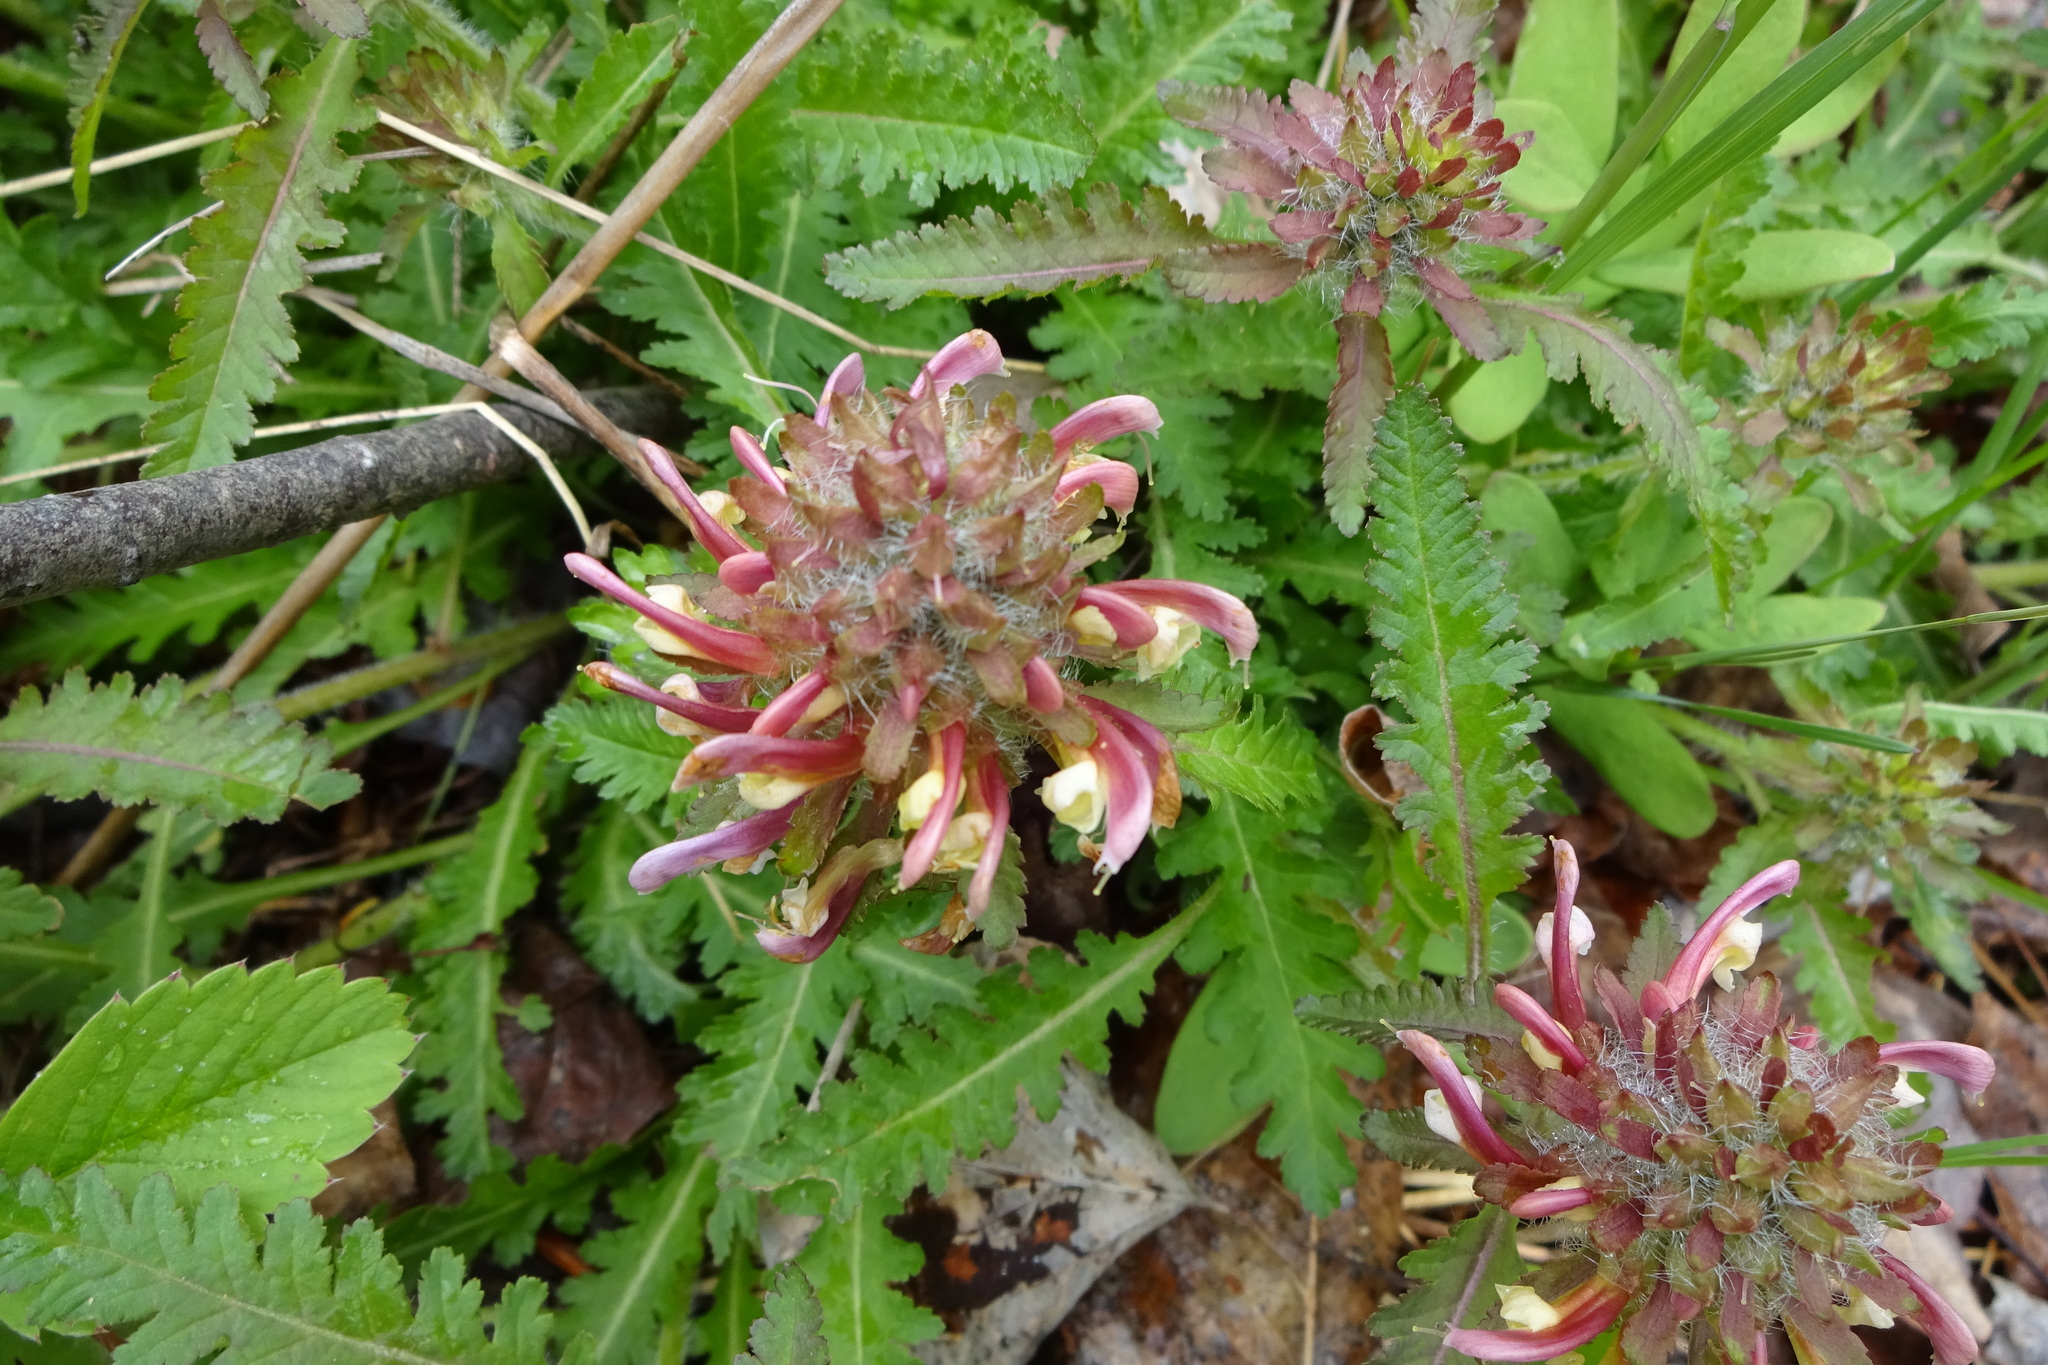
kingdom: Plantae
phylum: Tracheophyta
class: Magnoliopsida
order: Lamiales
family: Orobanchaceae
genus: Pedicularis
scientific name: Pedicularis canadensis
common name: Early lousewort
